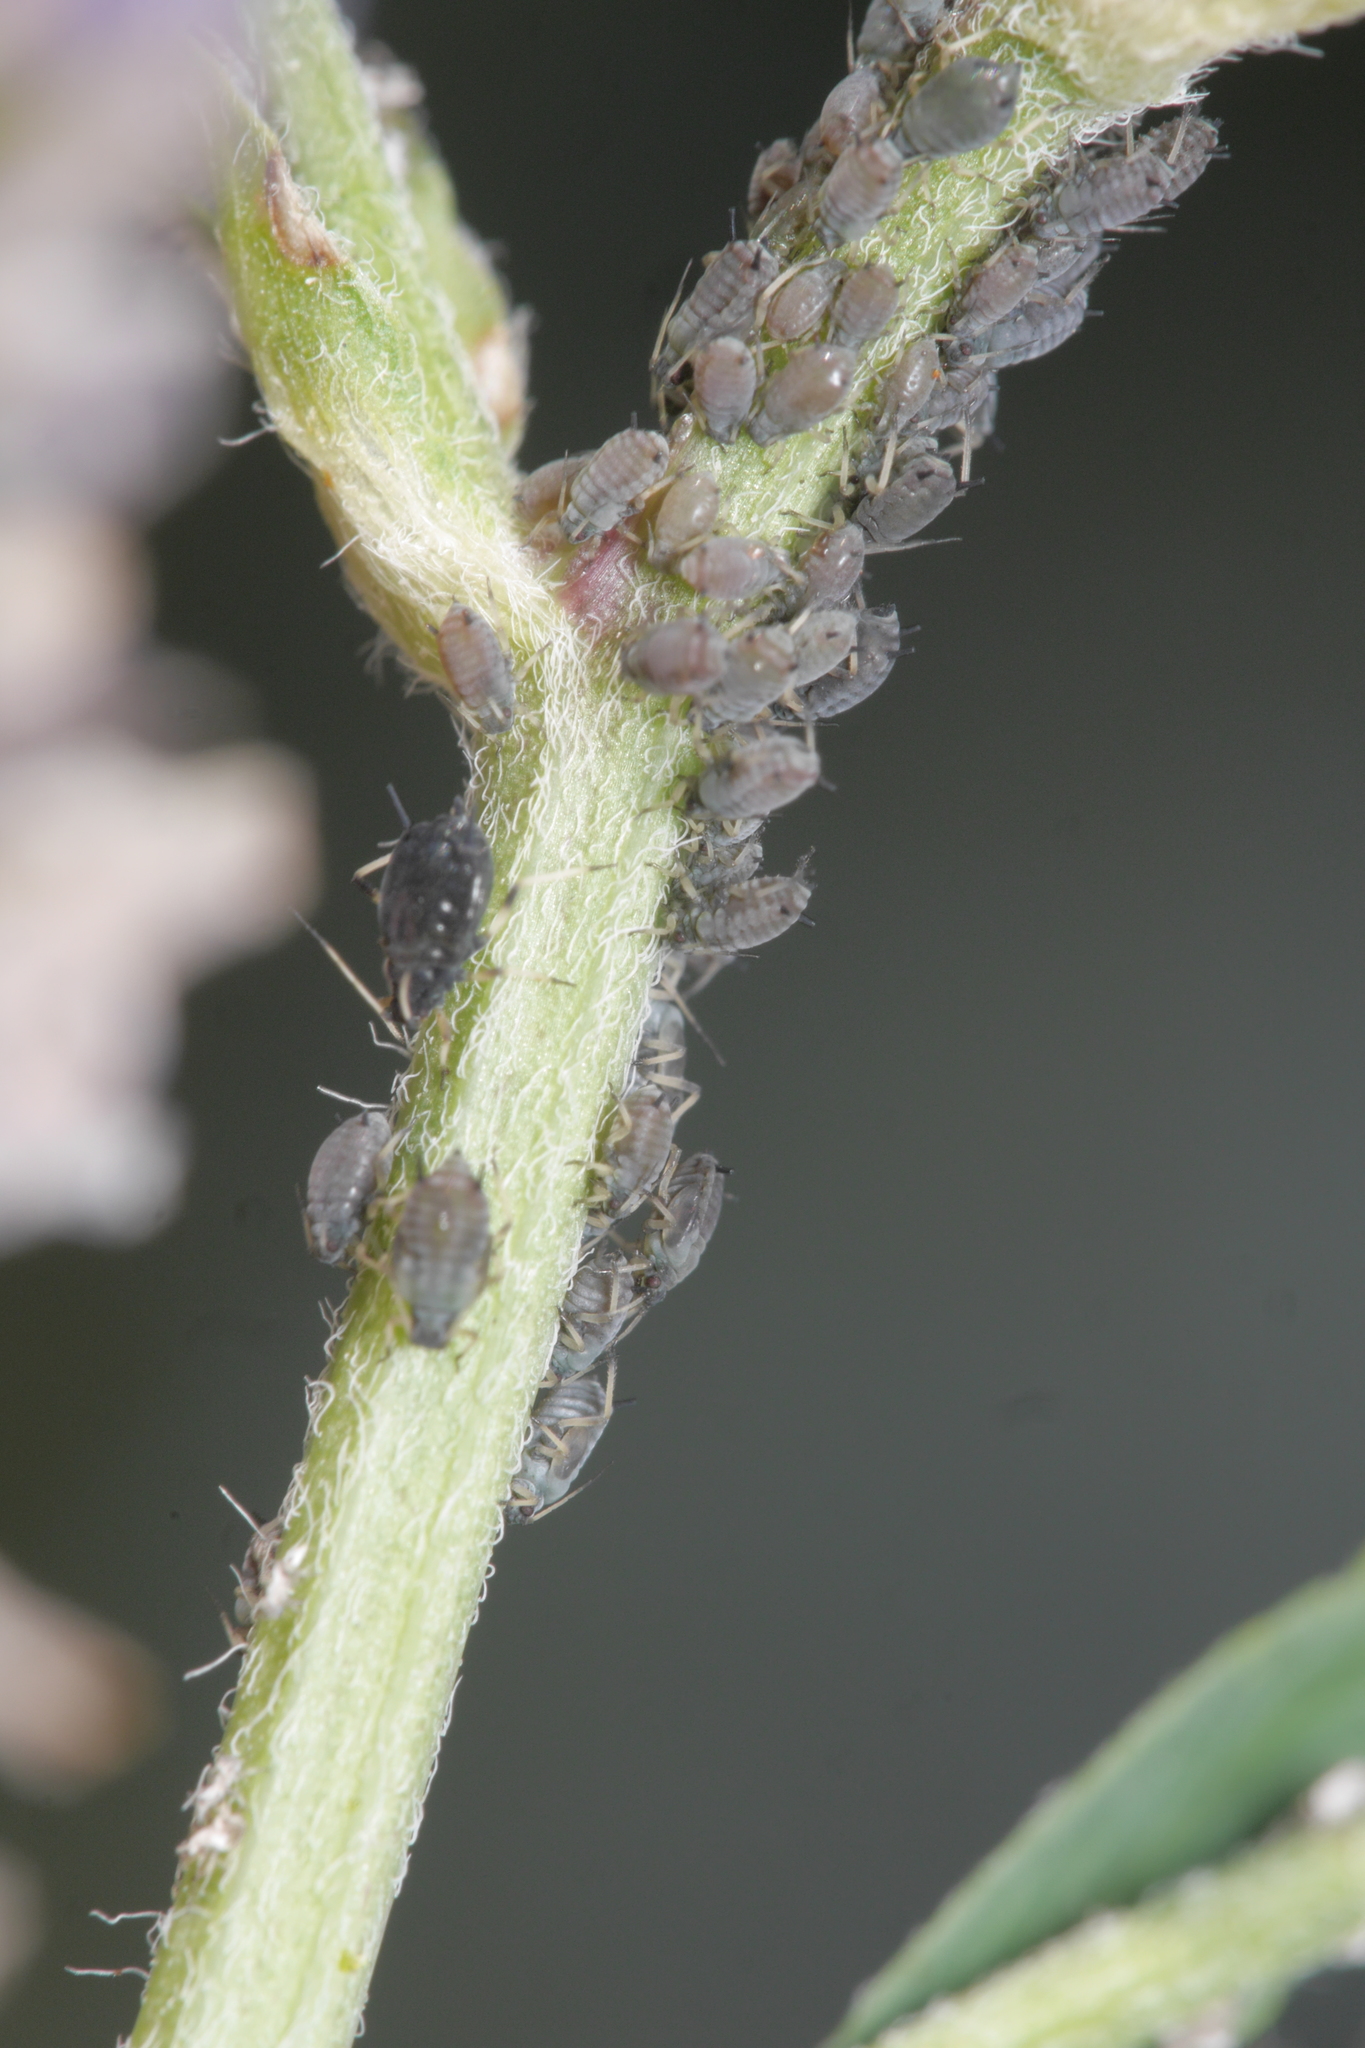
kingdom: Animalia
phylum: Arthropoda
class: Insecta
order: Hemiptera
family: Aphididae
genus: Aphis
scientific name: Aphis craccivora
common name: Cowpea aphid
